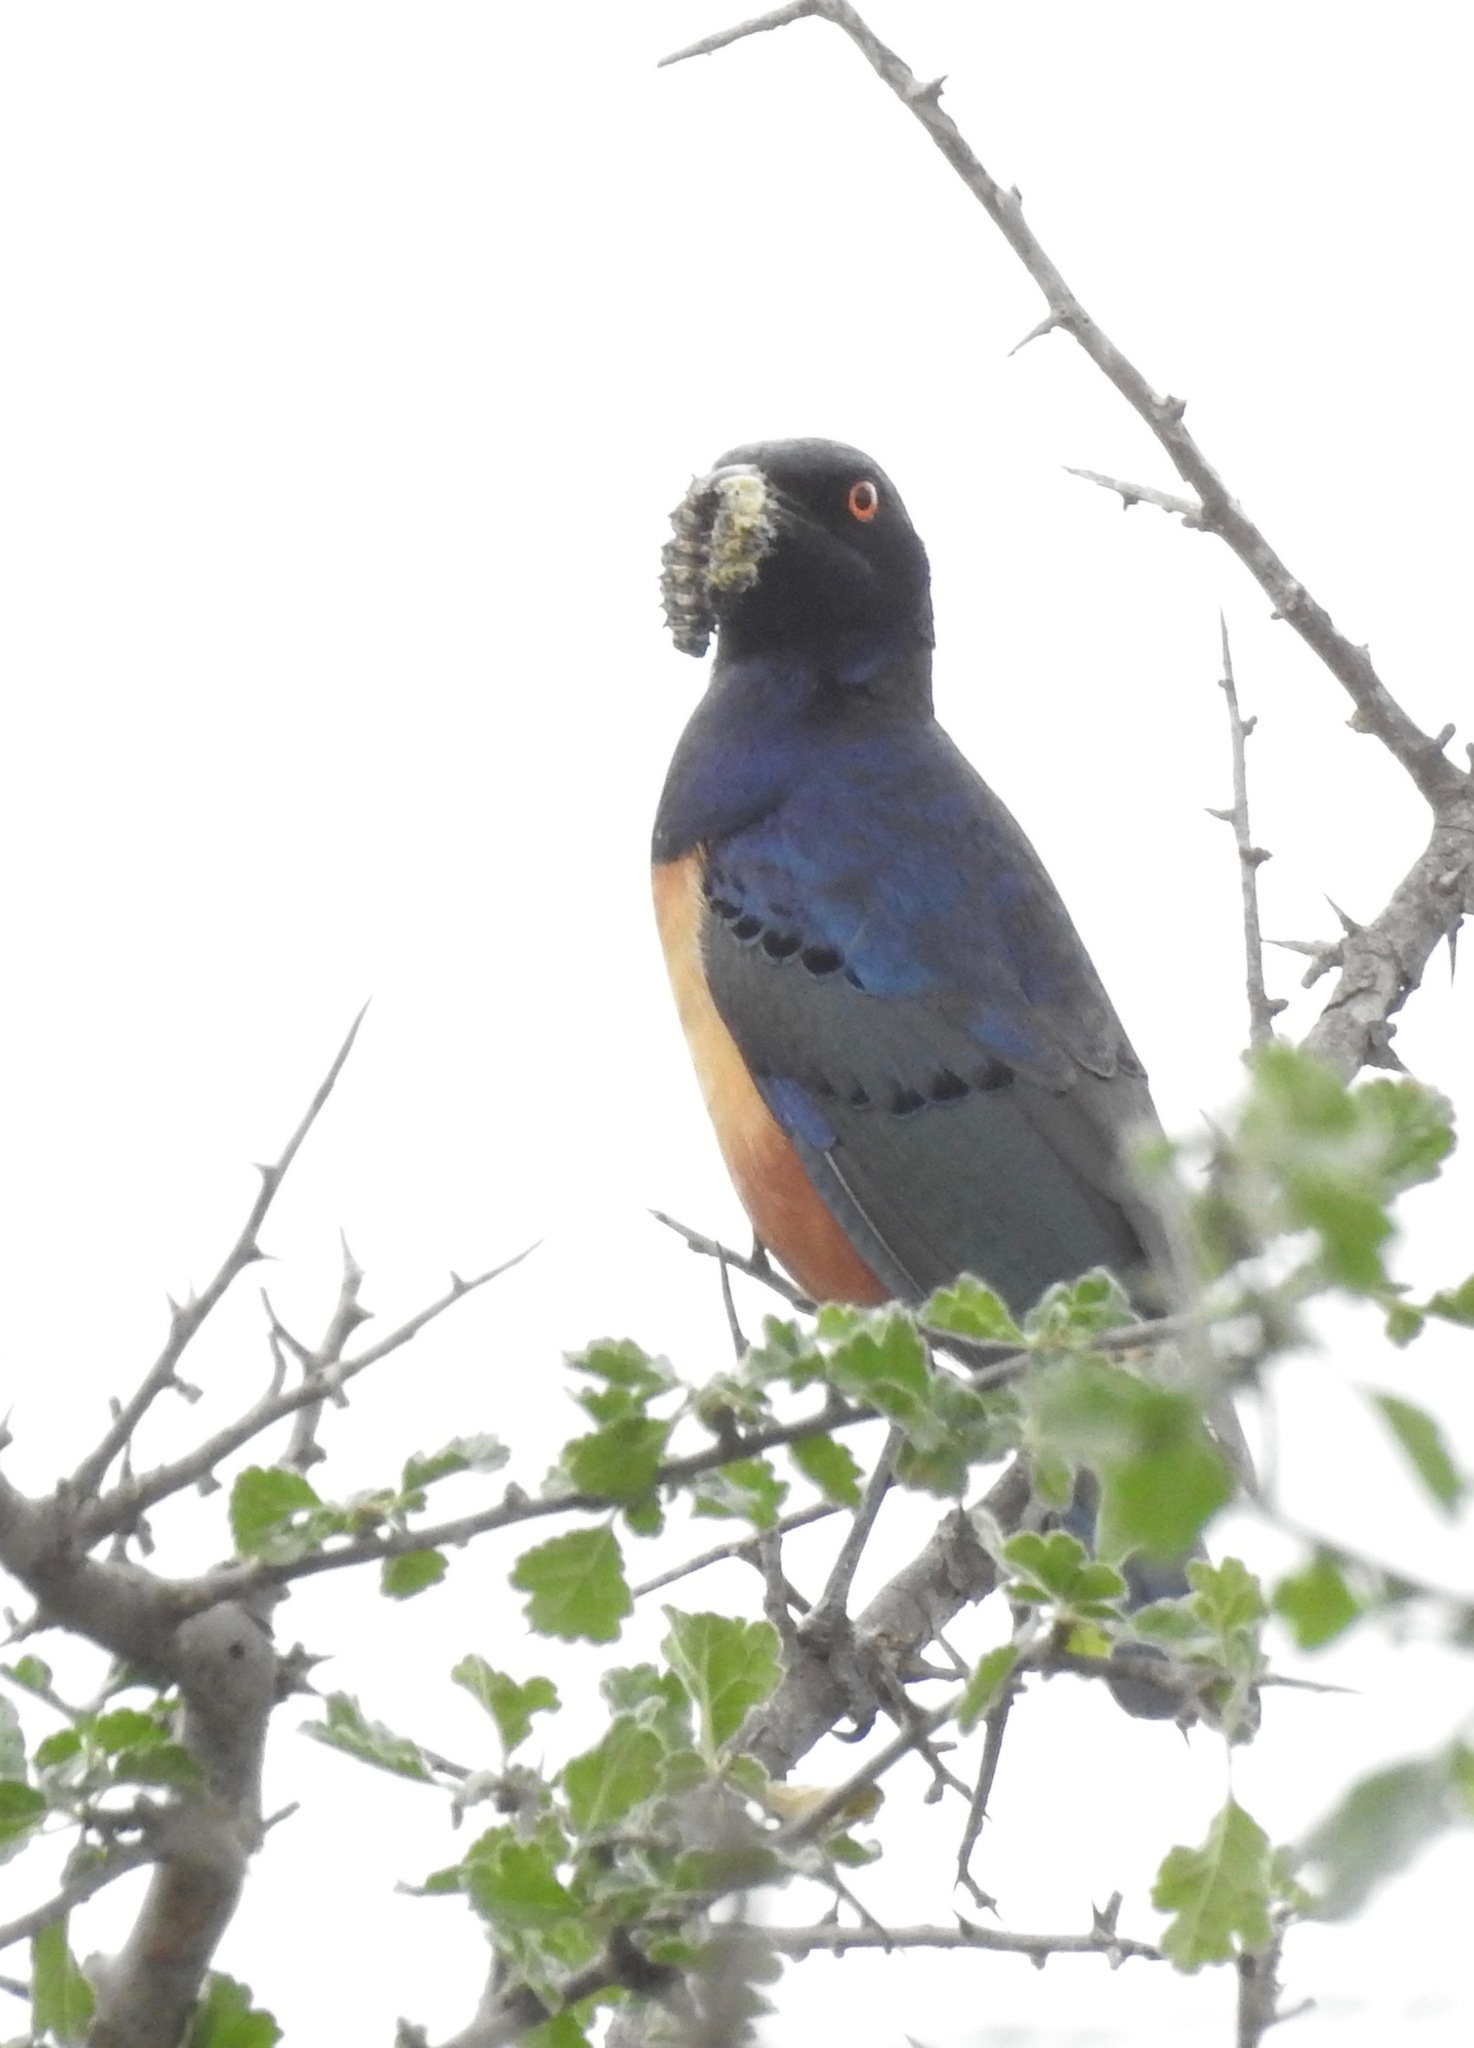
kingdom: Animalia
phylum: Chordata
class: Aves
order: Passeriformes
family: Sturnidae
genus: Lamprotornis
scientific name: Lamprotornis hildebrandti
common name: Hildebrandt's starling
